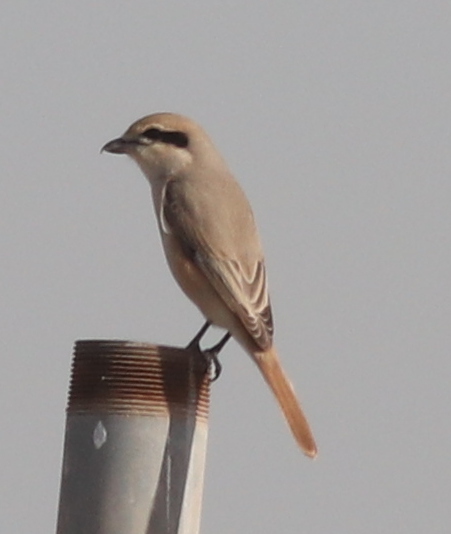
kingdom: Animalia
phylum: Chordata
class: Aves
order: Passeriformes
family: Laniidae
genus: Lanius
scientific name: Lanius isabellinus
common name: Isabelline shrike
